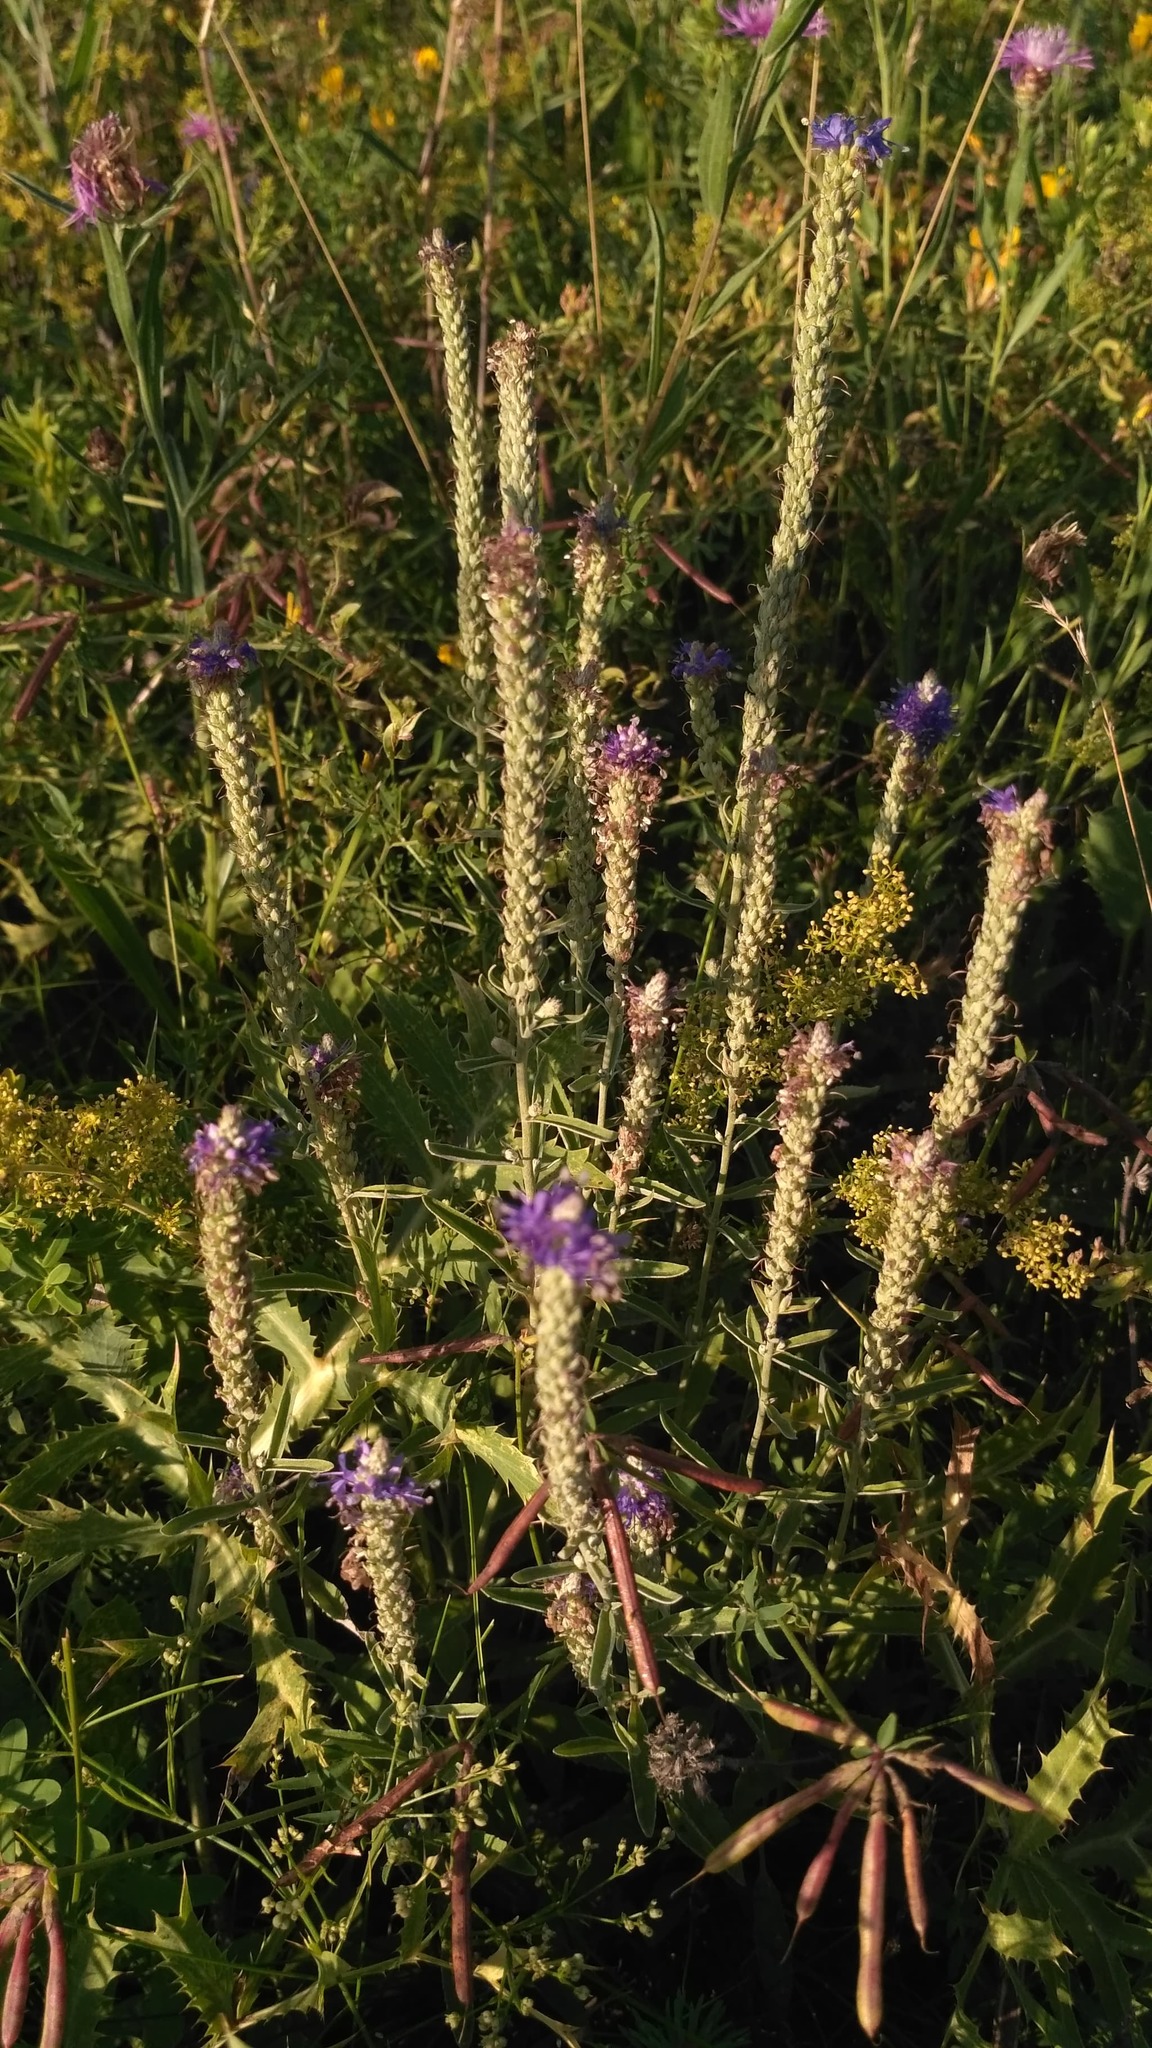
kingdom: Plantae
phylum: Tracheophyta
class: Magnoliopsida
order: Lamiales
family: Plantaginaceae
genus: Veronica
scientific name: Veronica spicata
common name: Spiked speedwell
